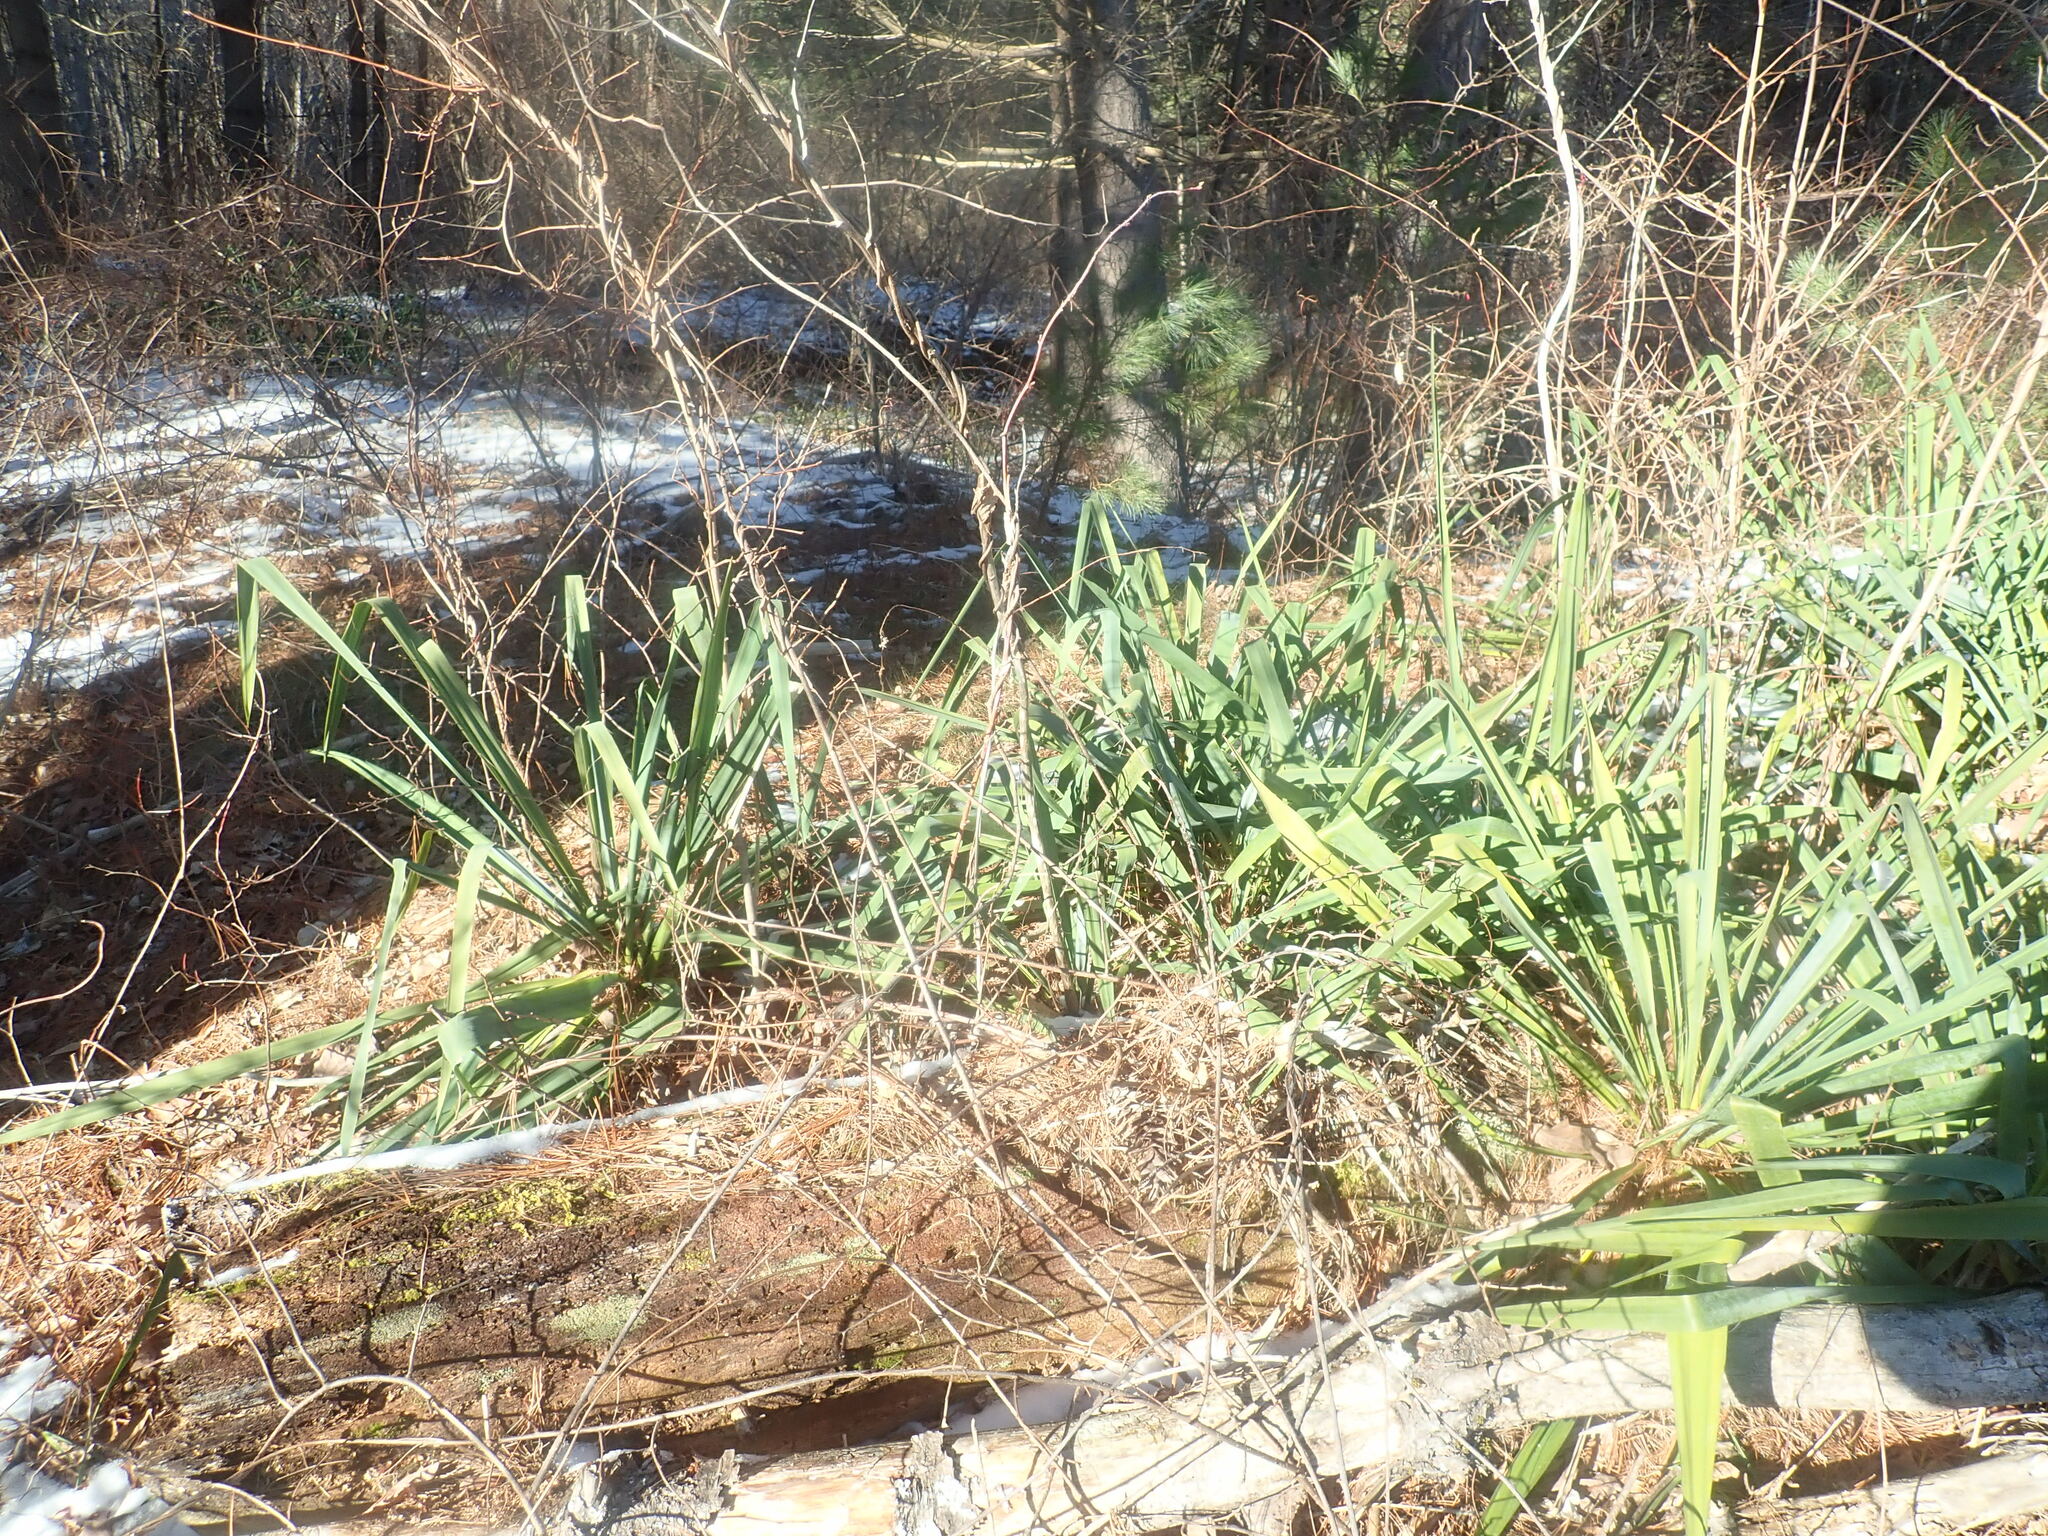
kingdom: Plantae
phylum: Tracheophyta
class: Liliopsida
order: Asparagales
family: Asparagaceae
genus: Yucca
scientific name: Yucca filamentosa
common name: Adam's-needle
